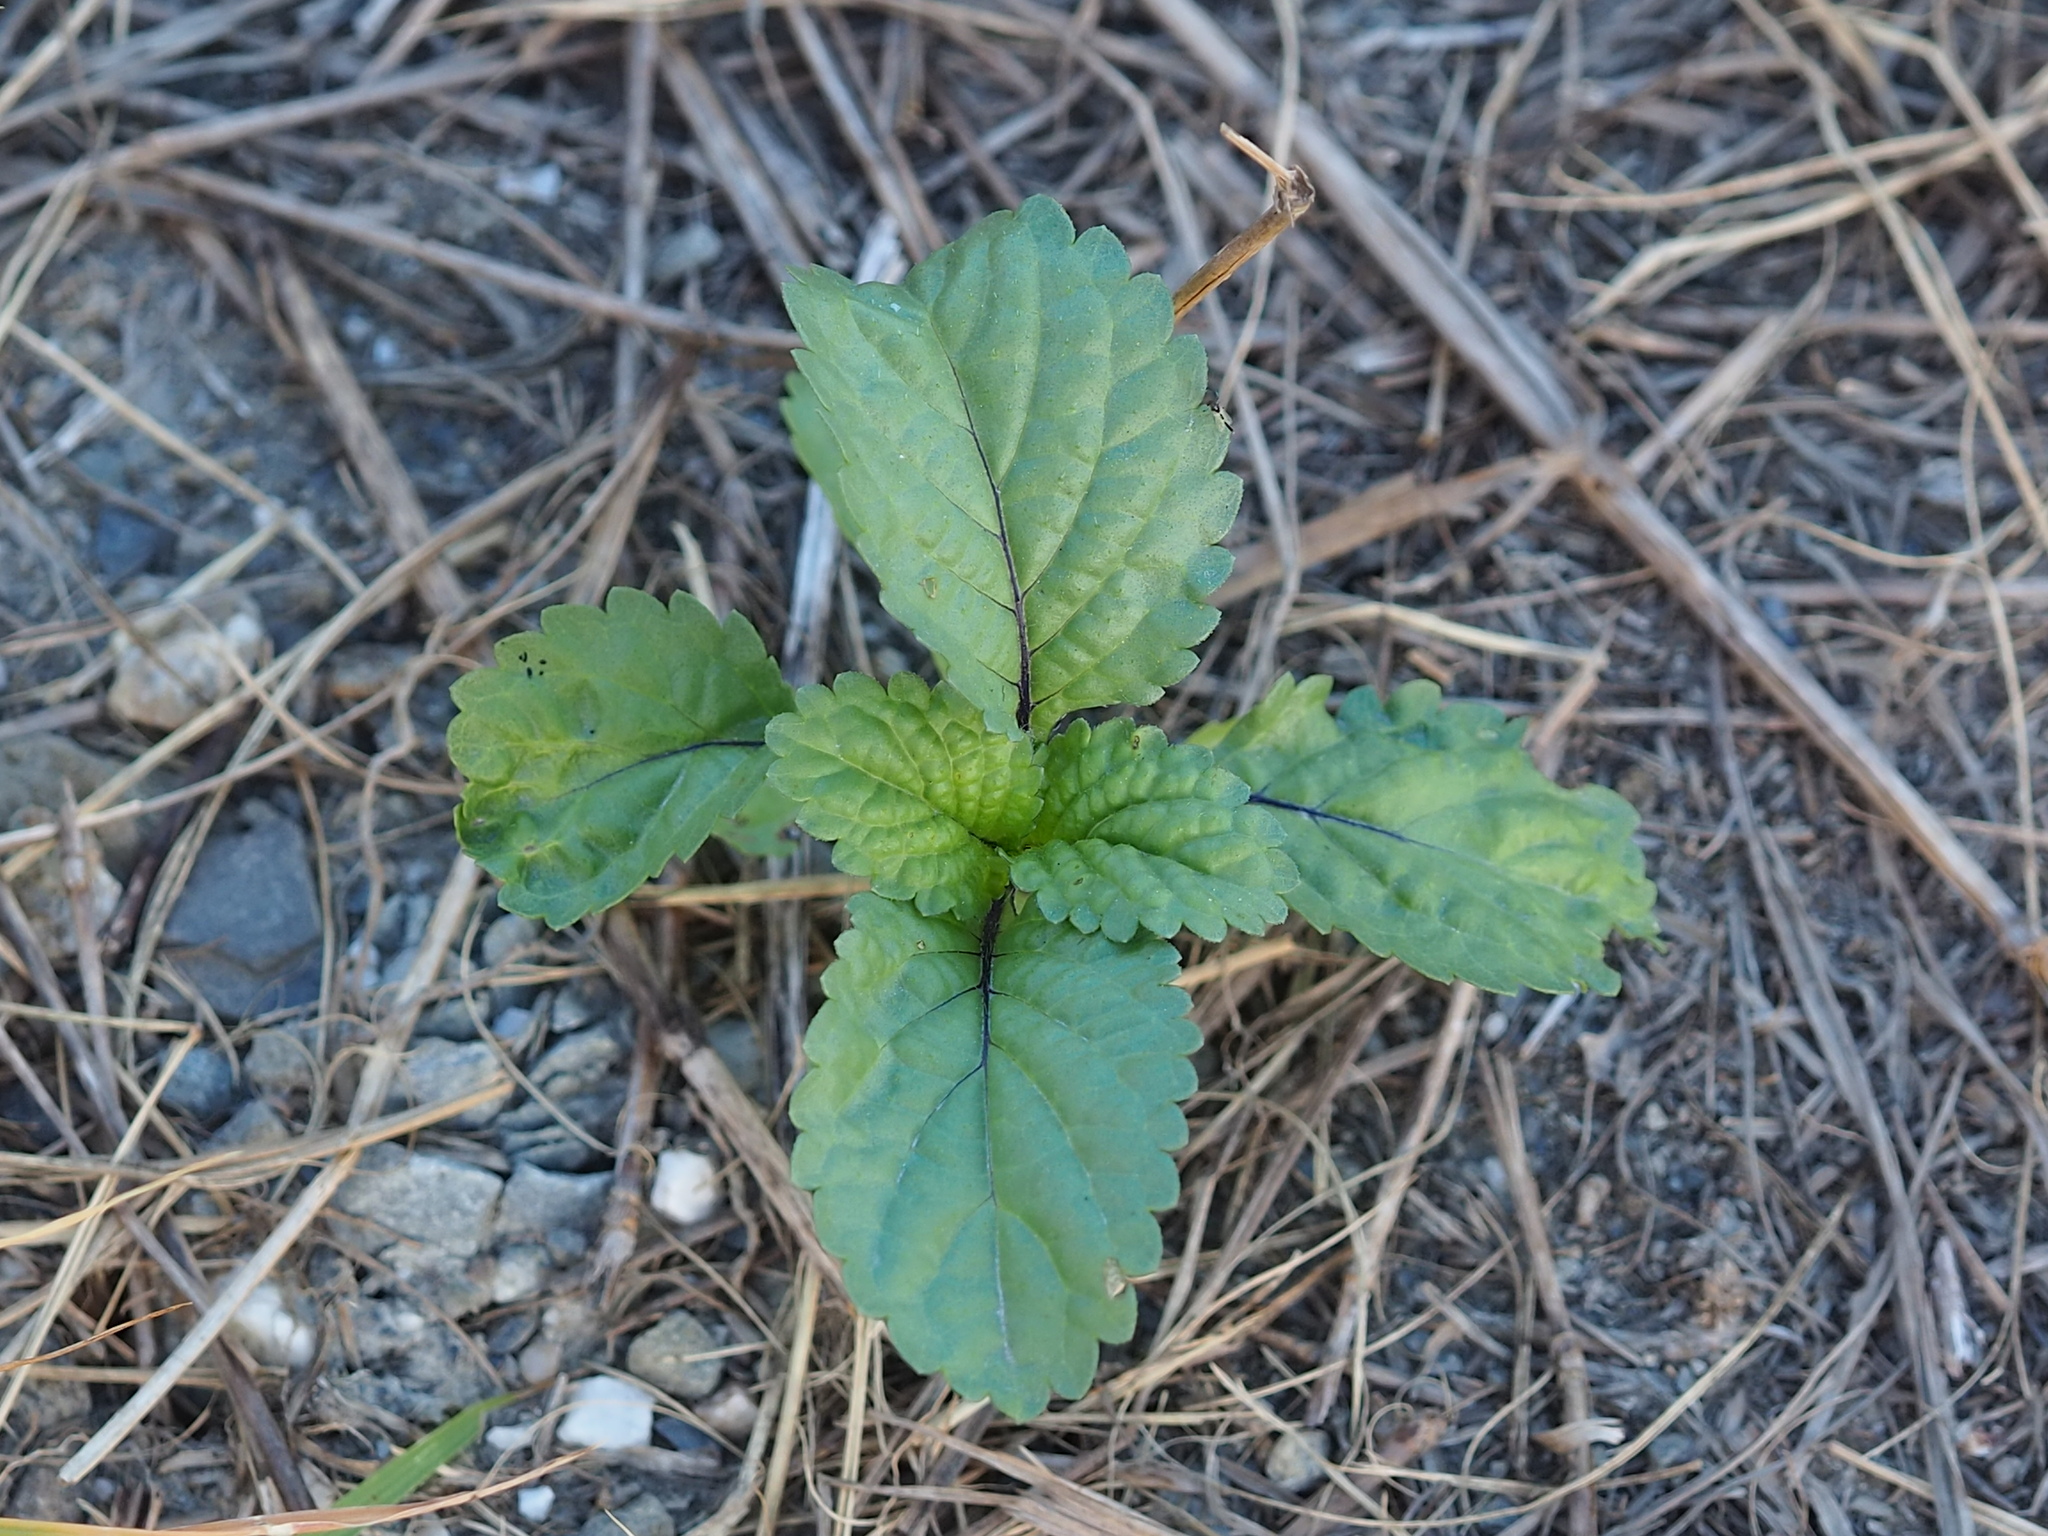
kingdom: Plantae
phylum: Tracheophyta
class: Magnoliopsida
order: Lamiales
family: Verbenaceae
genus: Stachytarpheta
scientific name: Stachytarpheta jamaicensis
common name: Light-blue snakeweed
